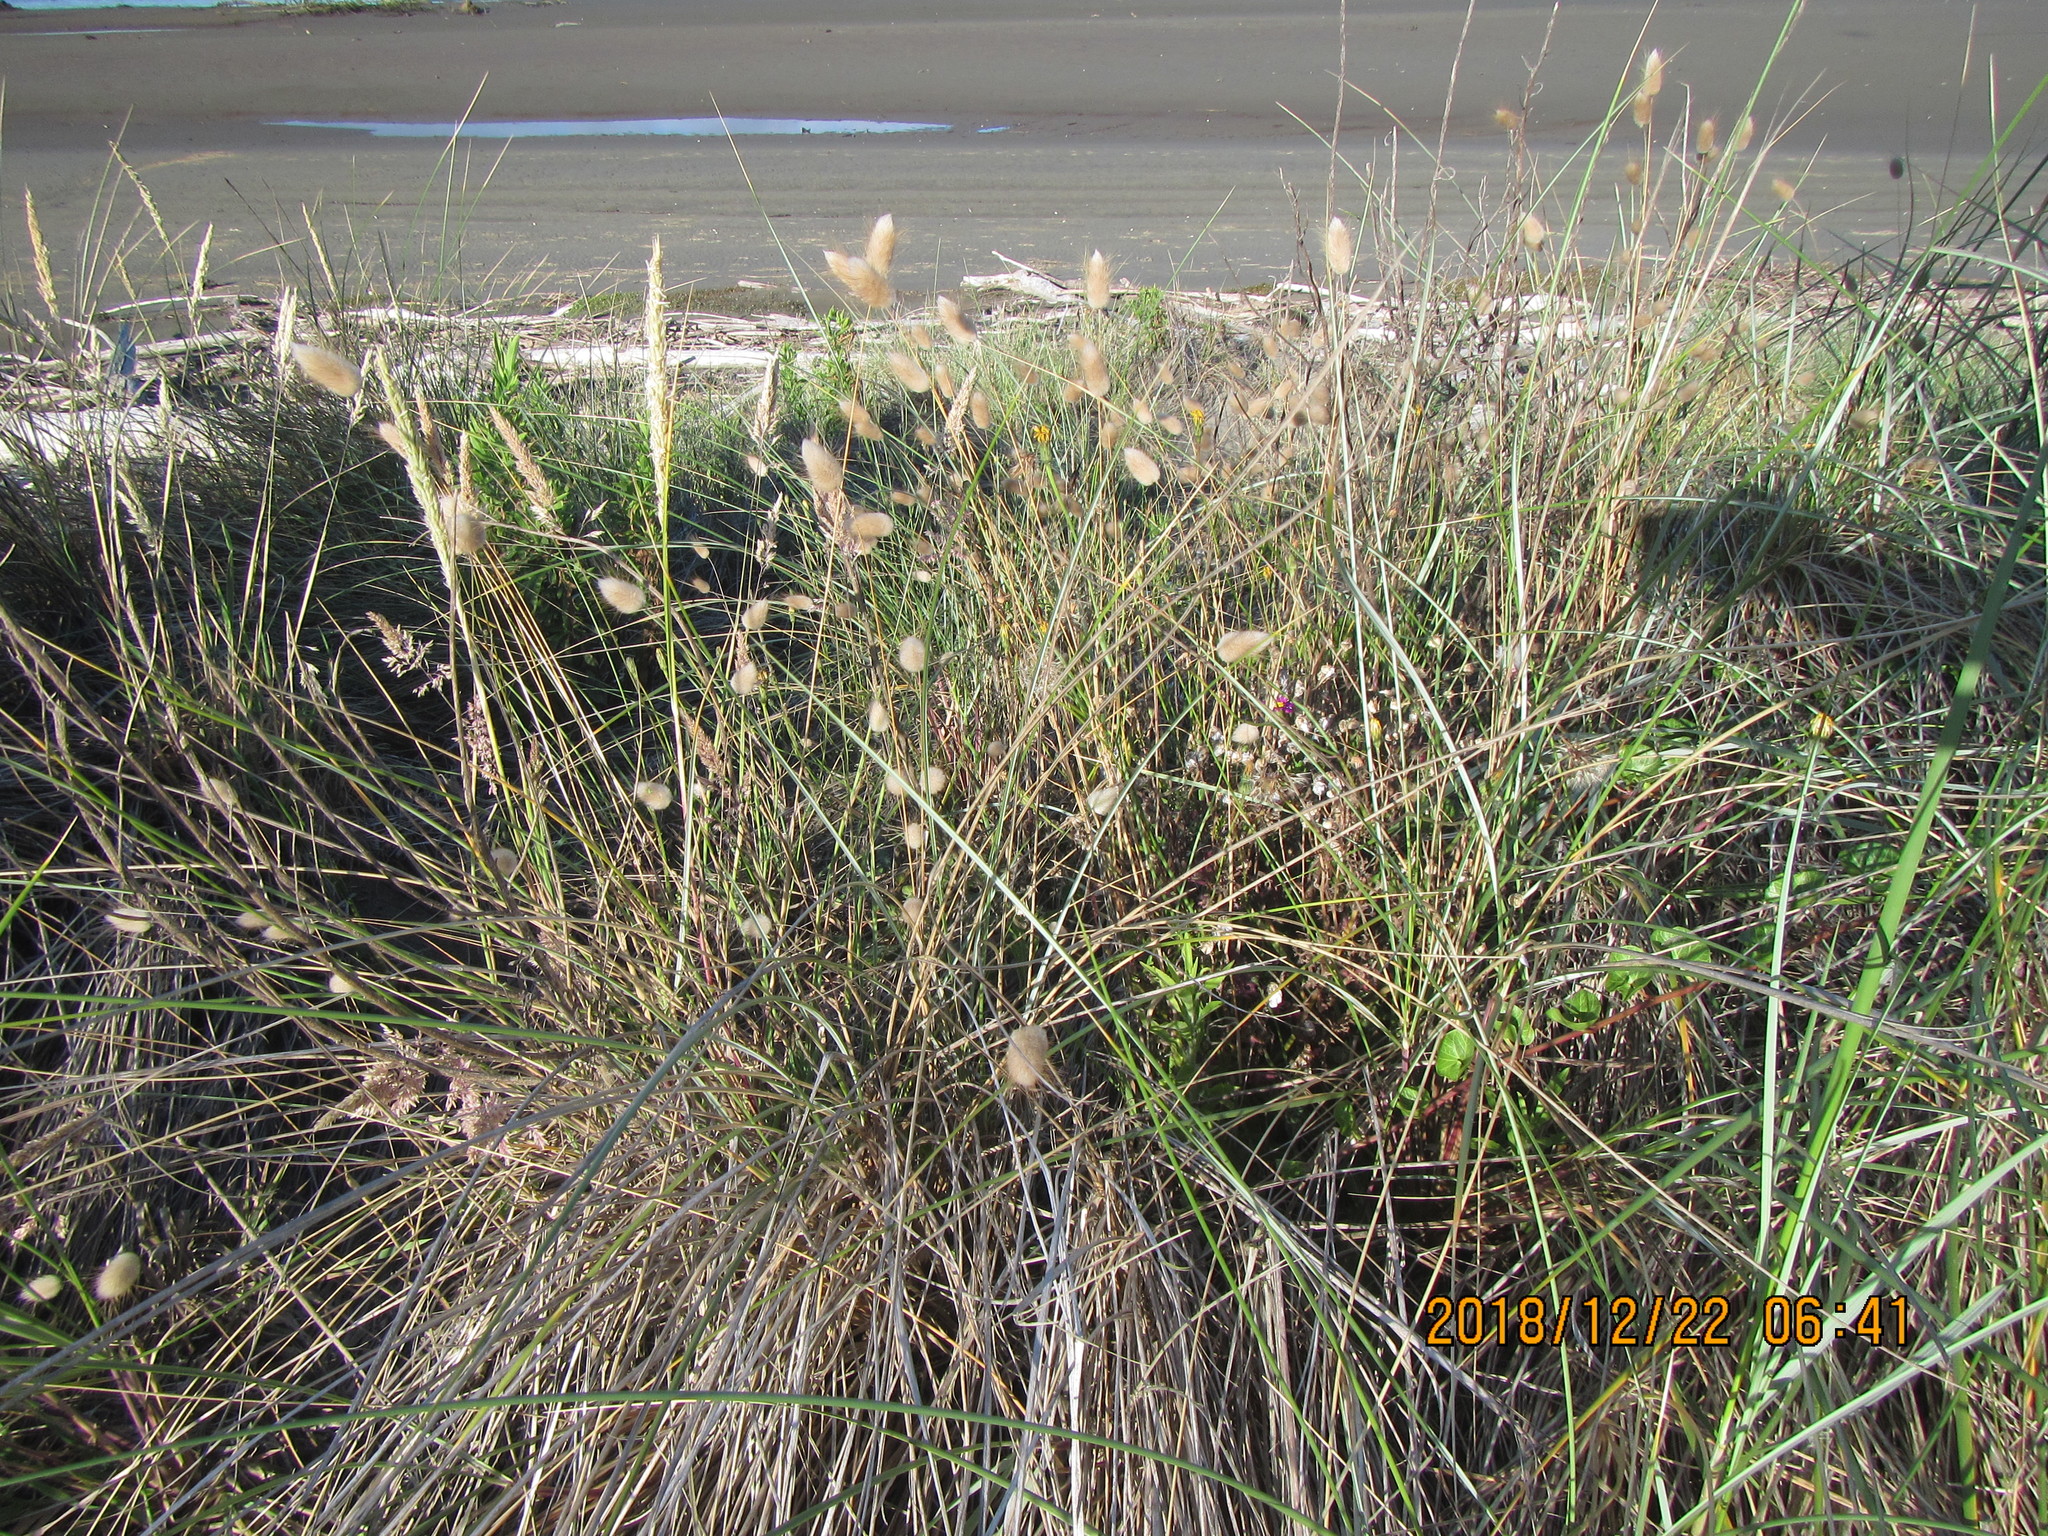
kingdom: Plantae
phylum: Tracheophyta
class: Liliopsida
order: Poales
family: Poaceae
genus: Lagurus
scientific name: Lagurus ovatus
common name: Hare's-tail
